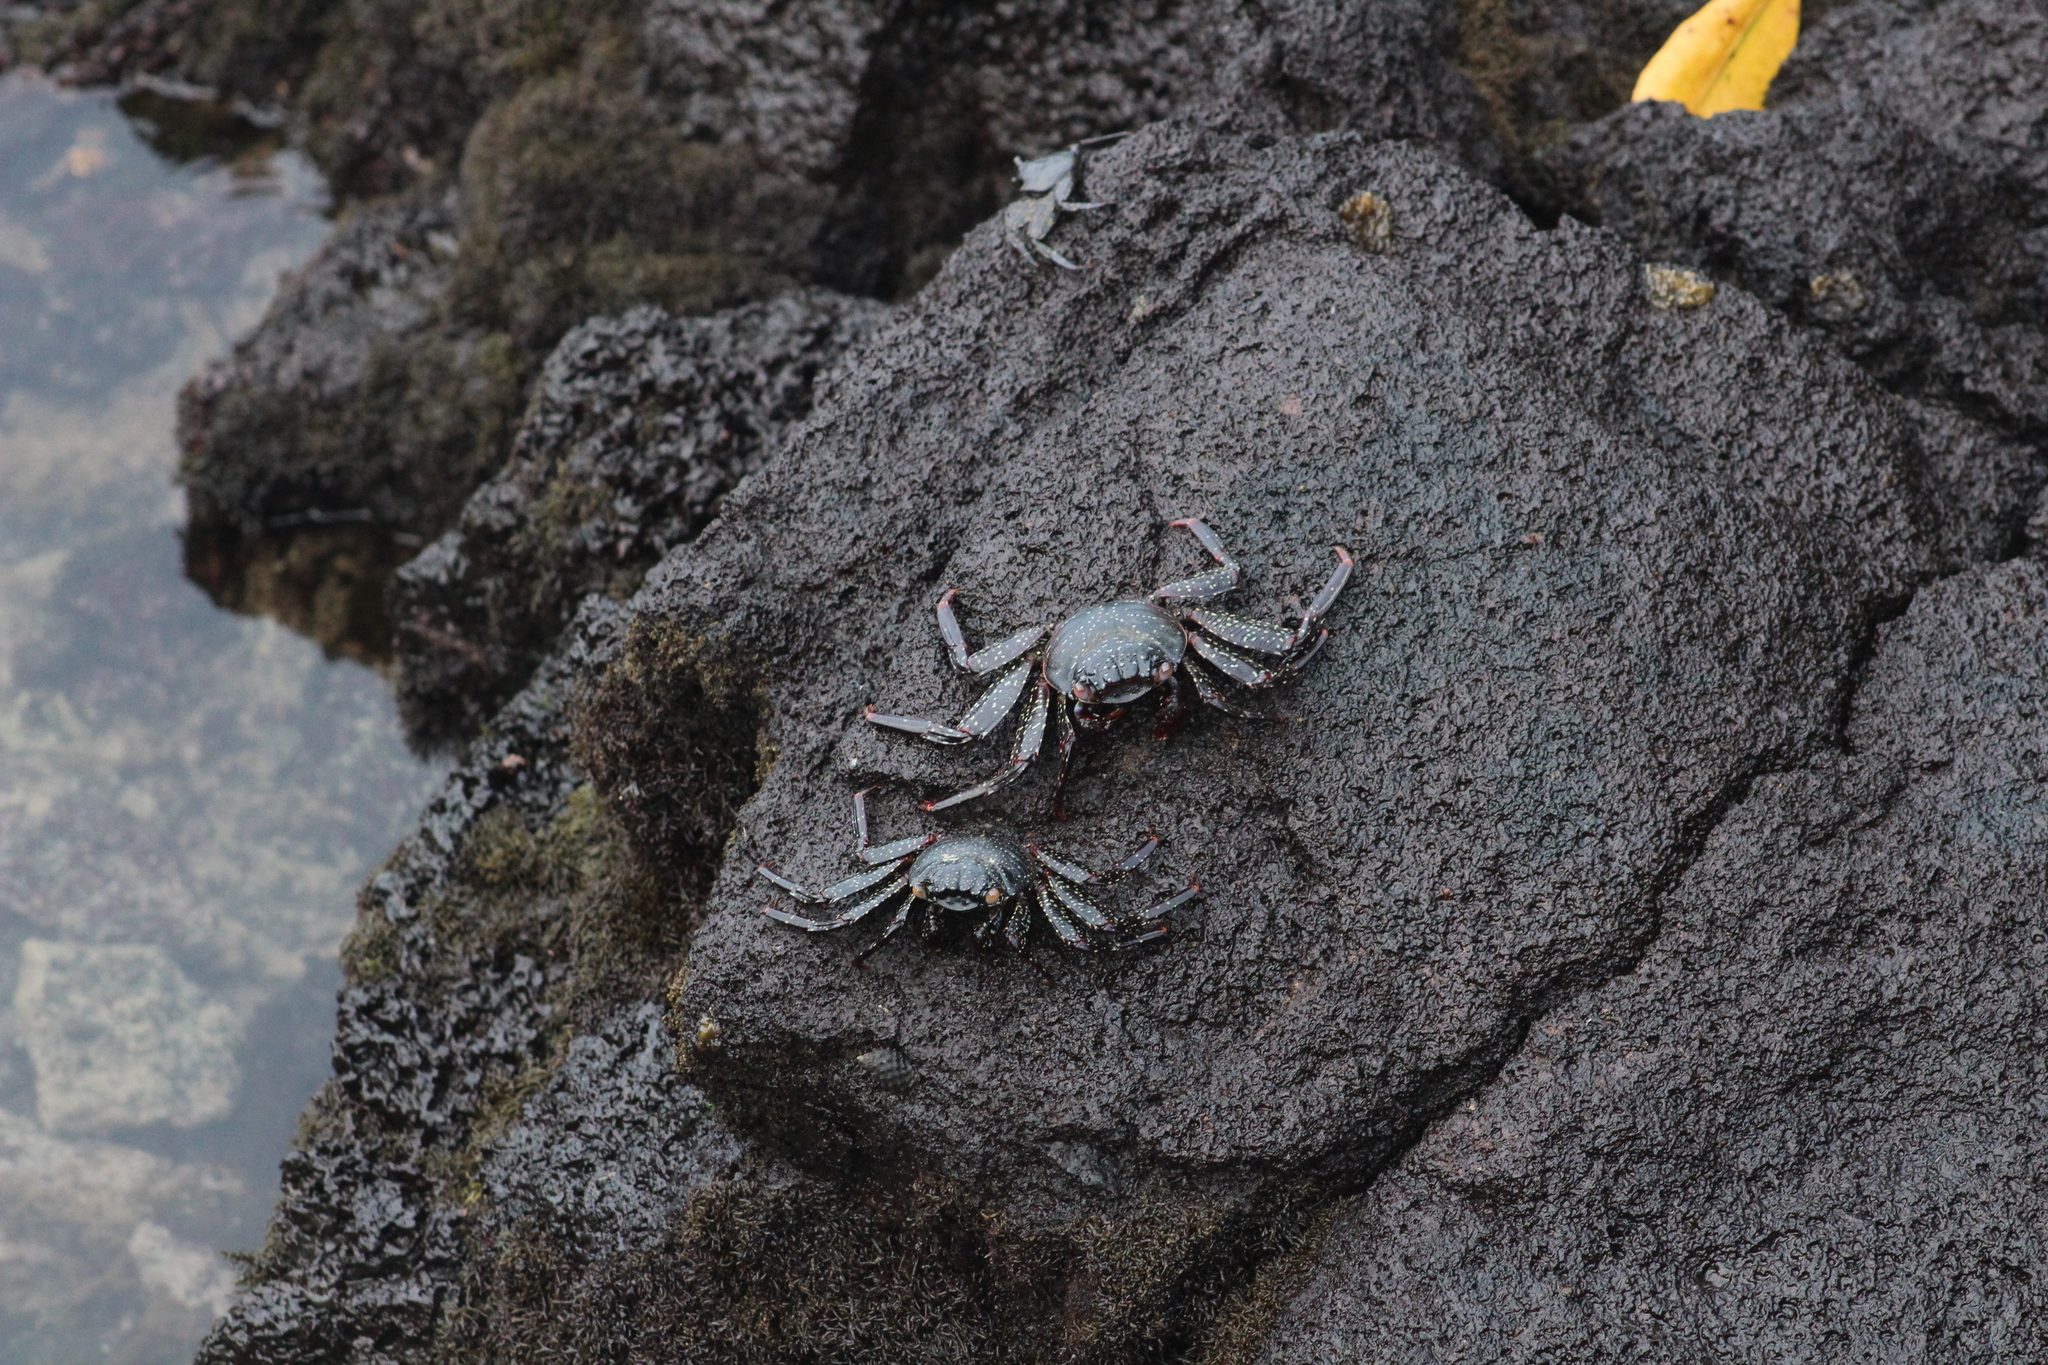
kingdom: Animalia
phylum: Arthropoda
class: Malacostraca
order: Decapoda
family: Grapsidae
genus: Grapsus
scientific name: Grapsus grapsus
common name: Sally lightfoot
